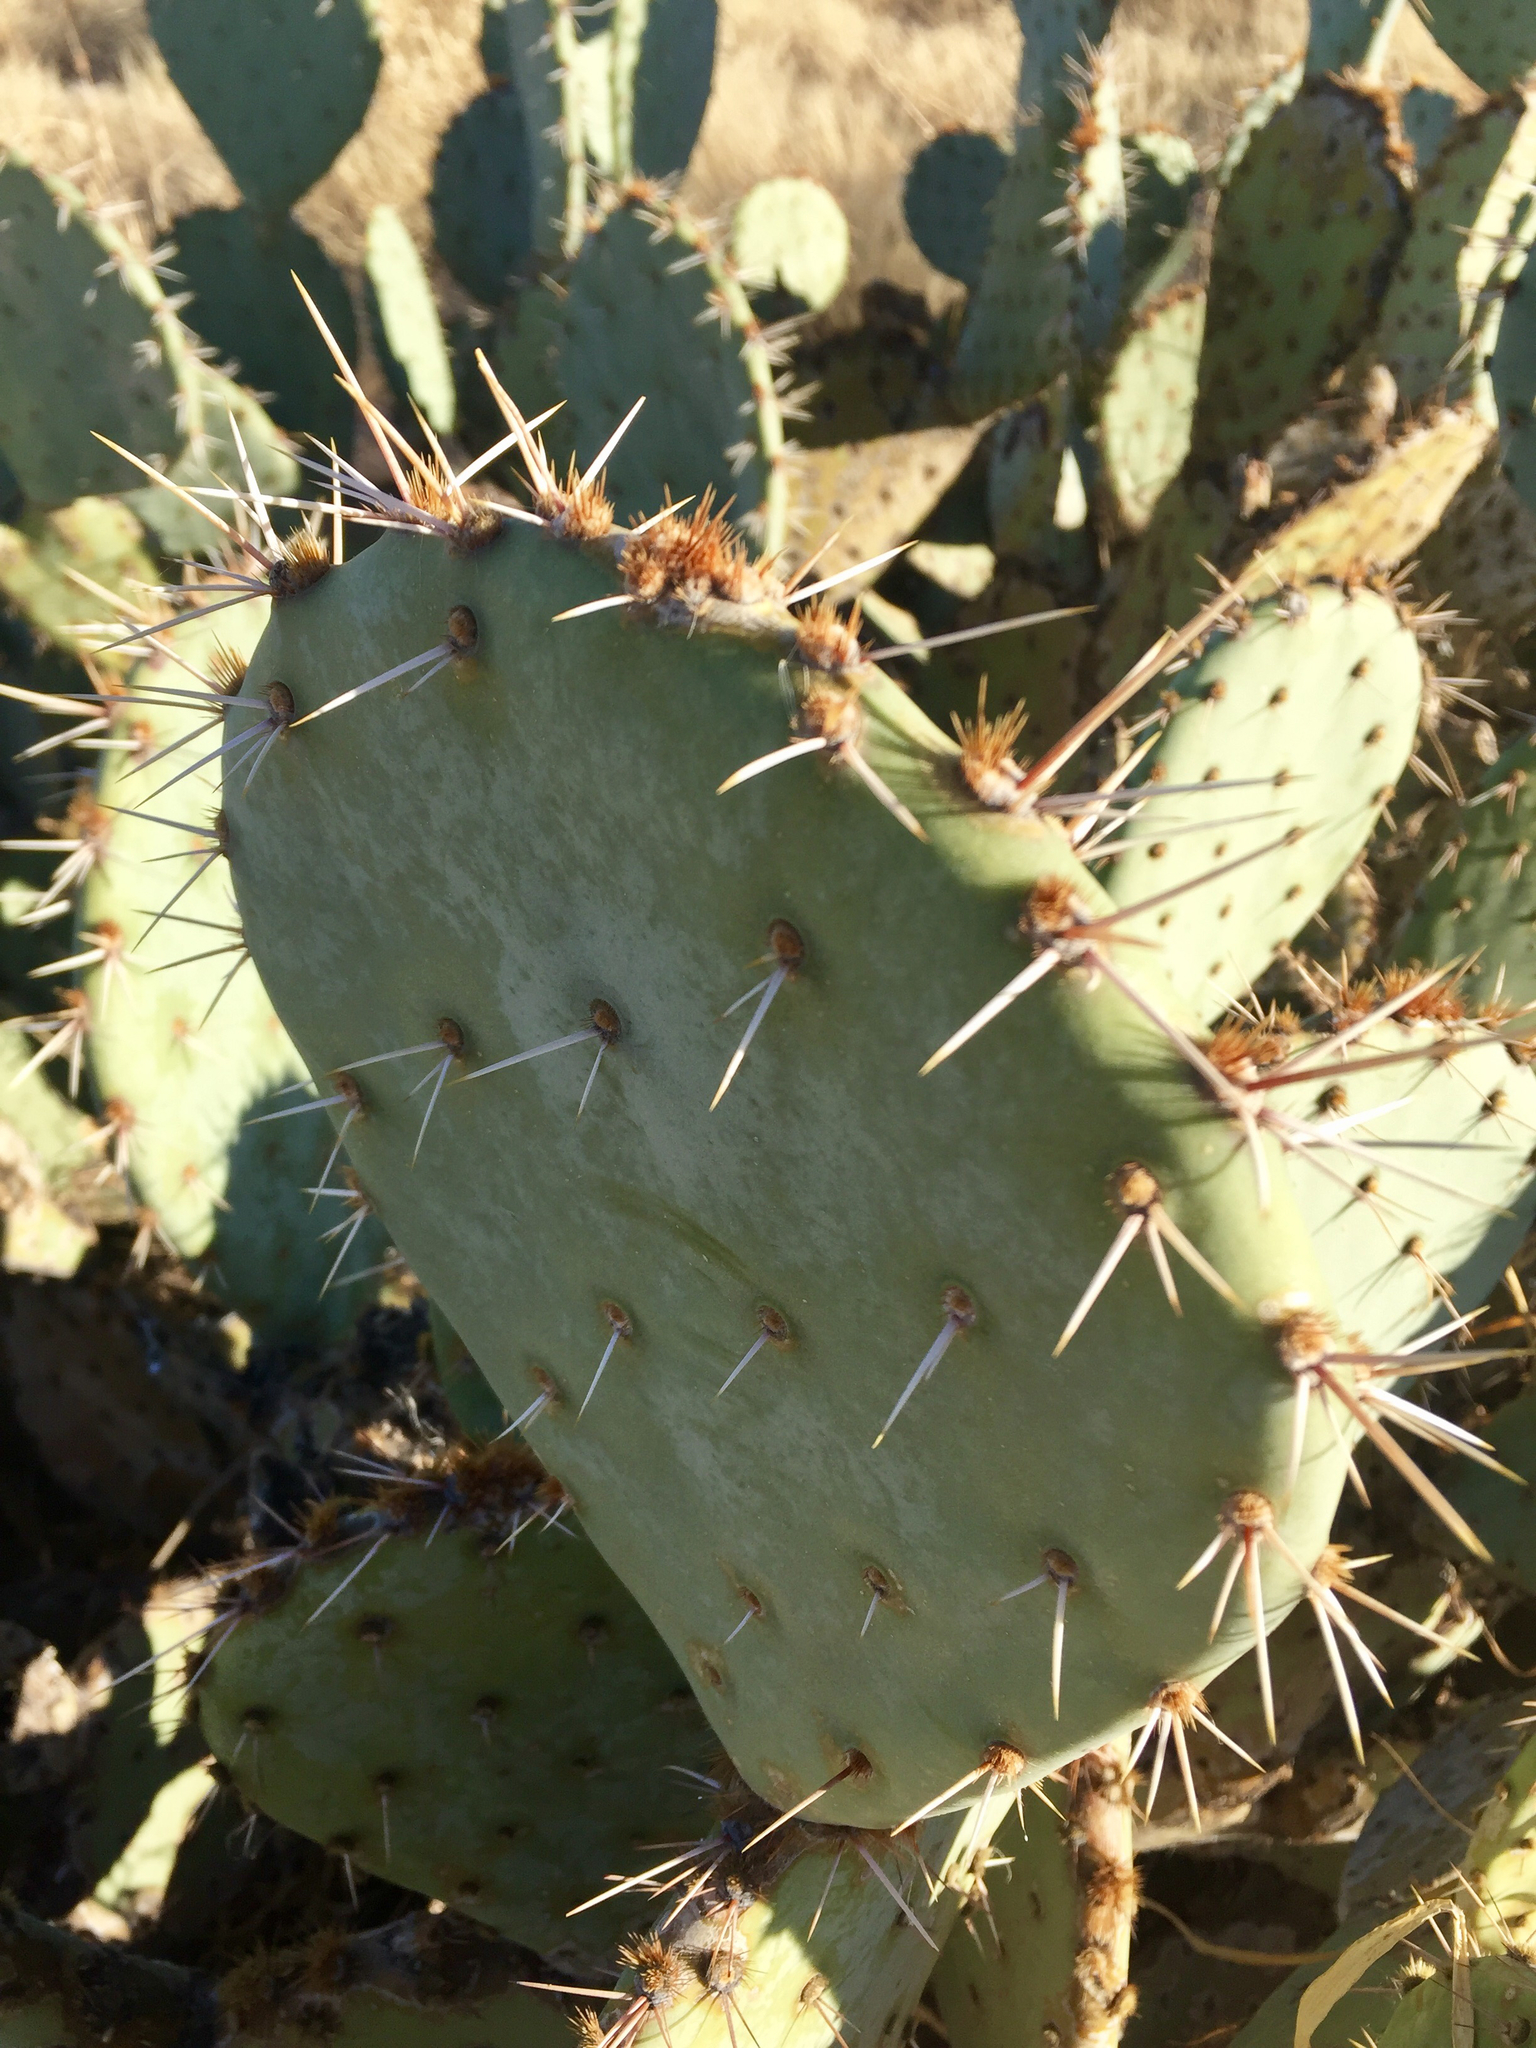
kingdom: Plantae
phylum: Tracheophyta
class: Magnoliopsida
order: Caryophyllales
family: Cactaceae
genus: Opuntia
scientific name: Opuntia engelmannii
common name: Cactus-apple
